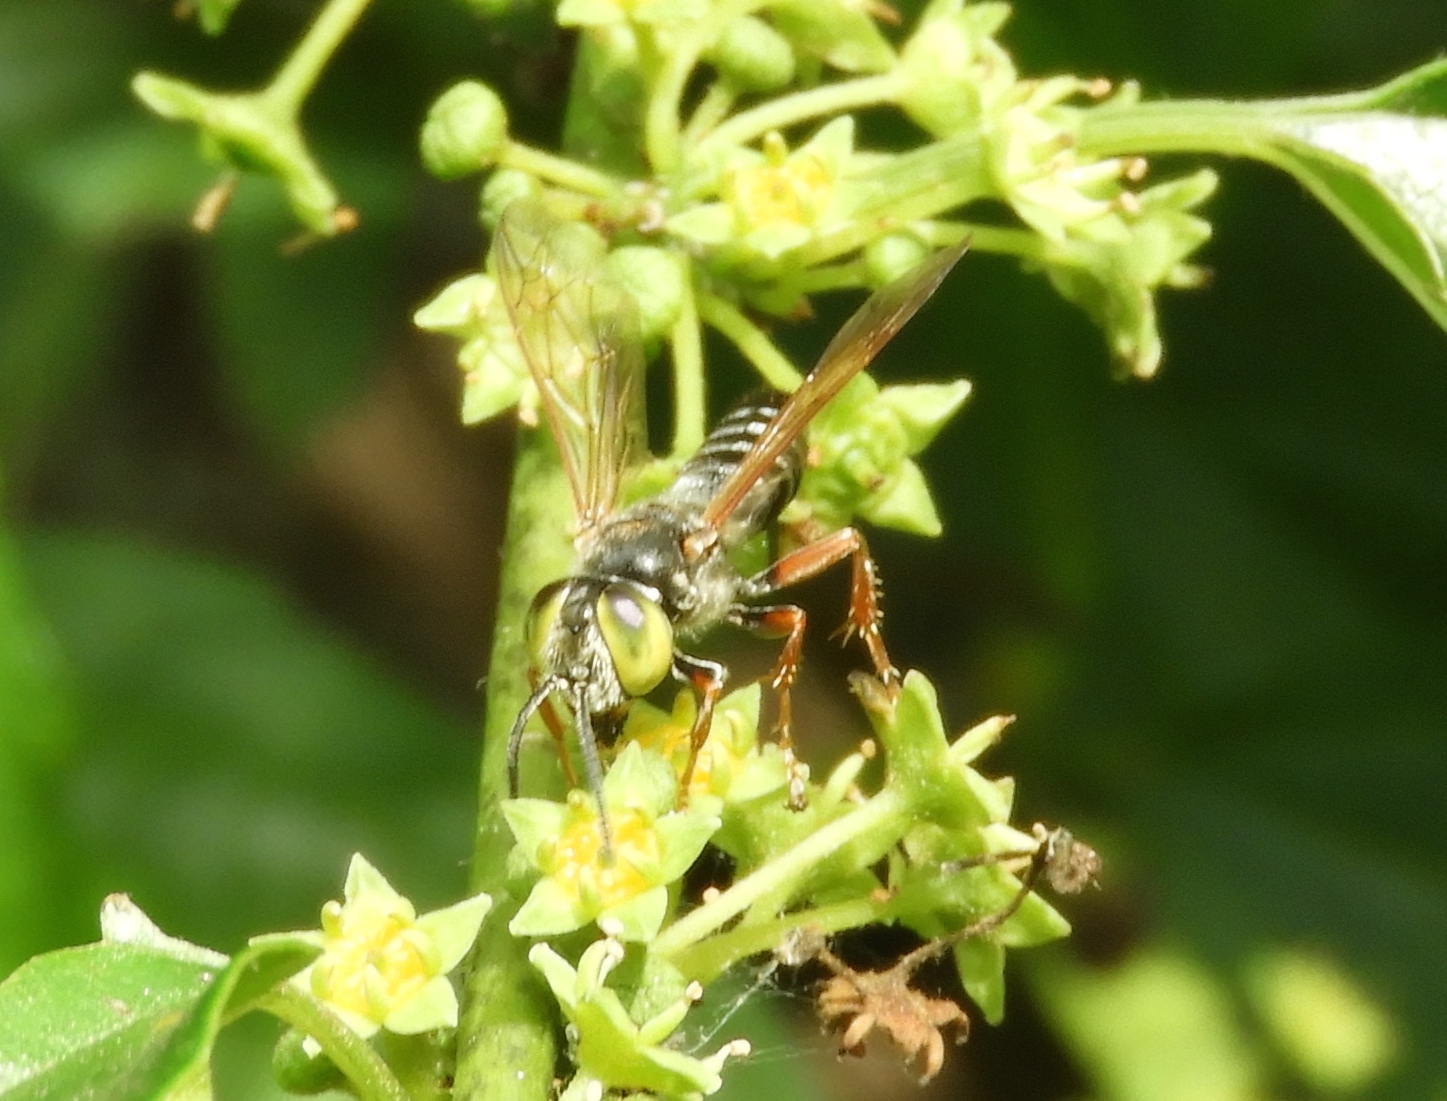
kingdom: Animalia
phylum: Arthropoda
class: Insecta
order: Hymenoptera
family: Crabronidae
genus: Tachytes
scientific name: Tachytes
